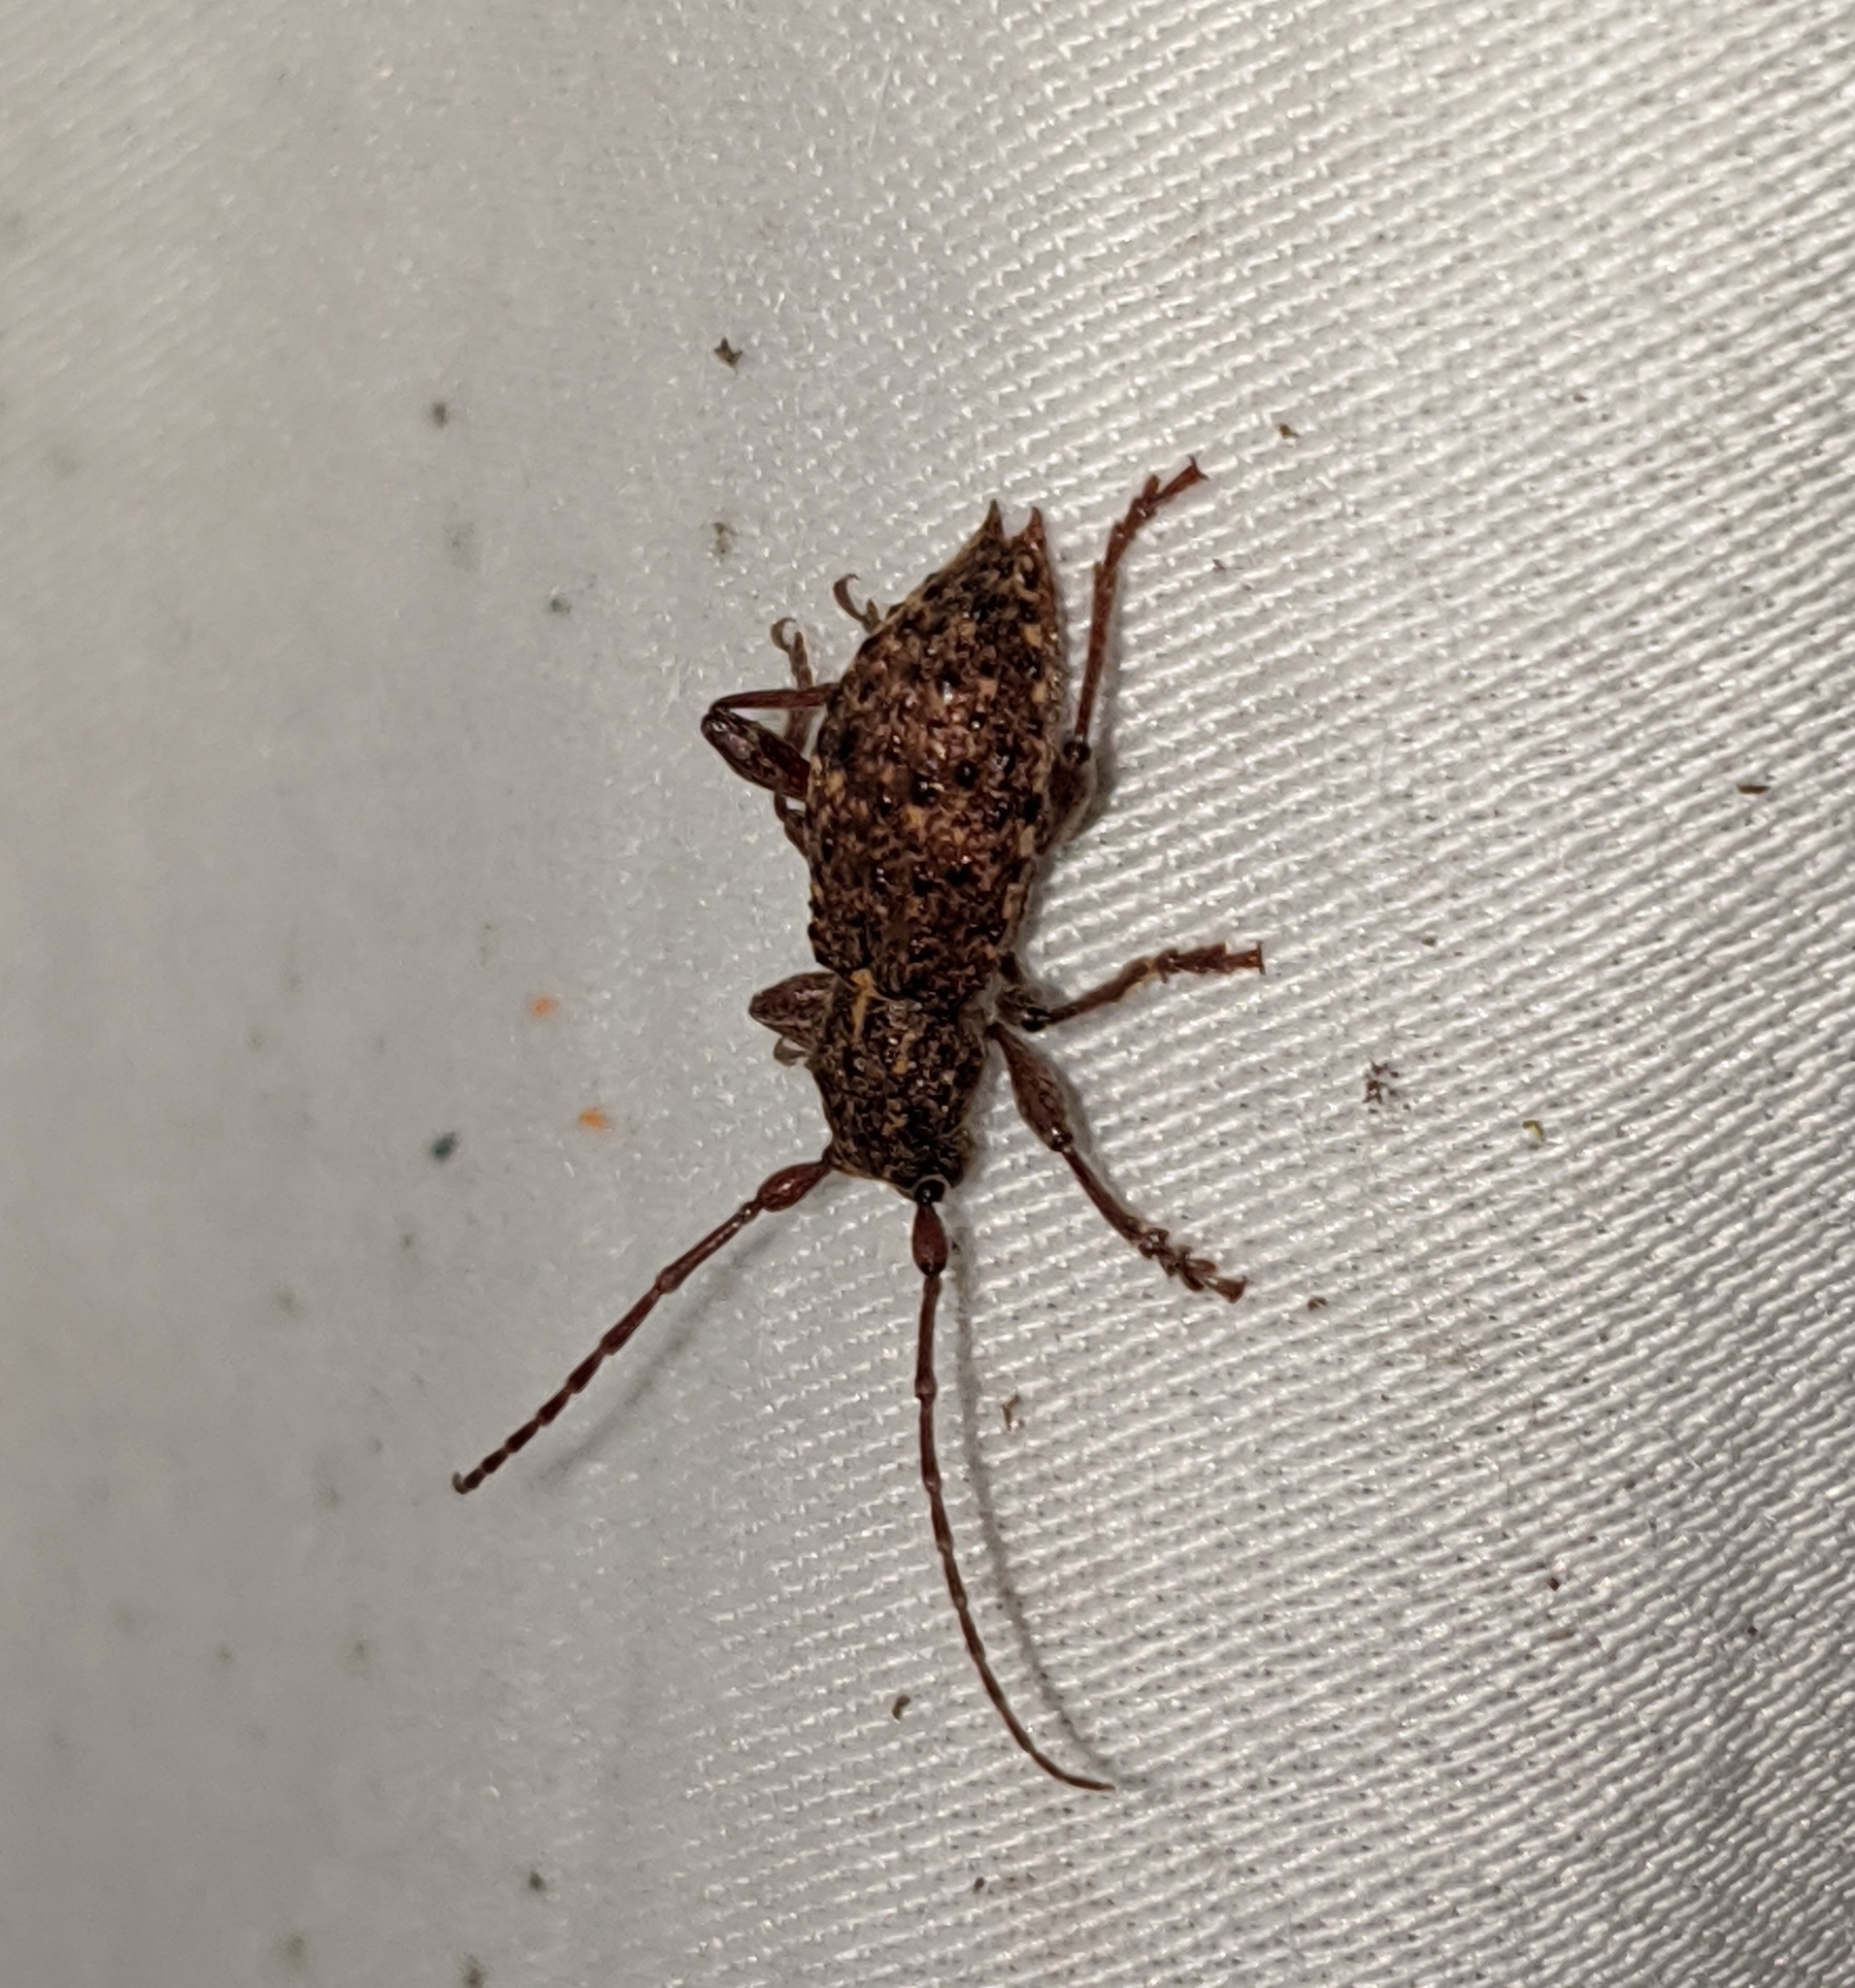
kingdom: Animalia
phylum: Arthropoda
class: Insecta
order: Coleoptera
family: Cerambycidae
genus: Plectrura
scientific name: Plectrura spinicauda
